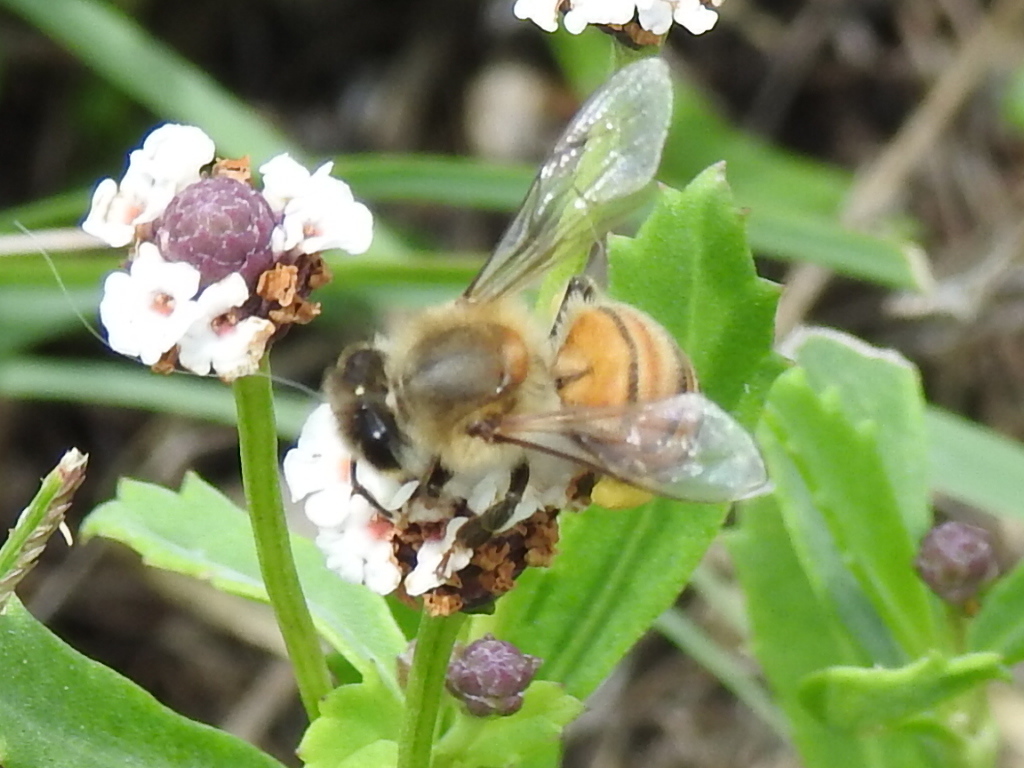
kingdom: Animalia
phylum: Arthropoda
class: Insecta
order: Hymenoptera
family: Apidae
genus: Apis
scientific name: Apis mellifera
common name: Honey bee
